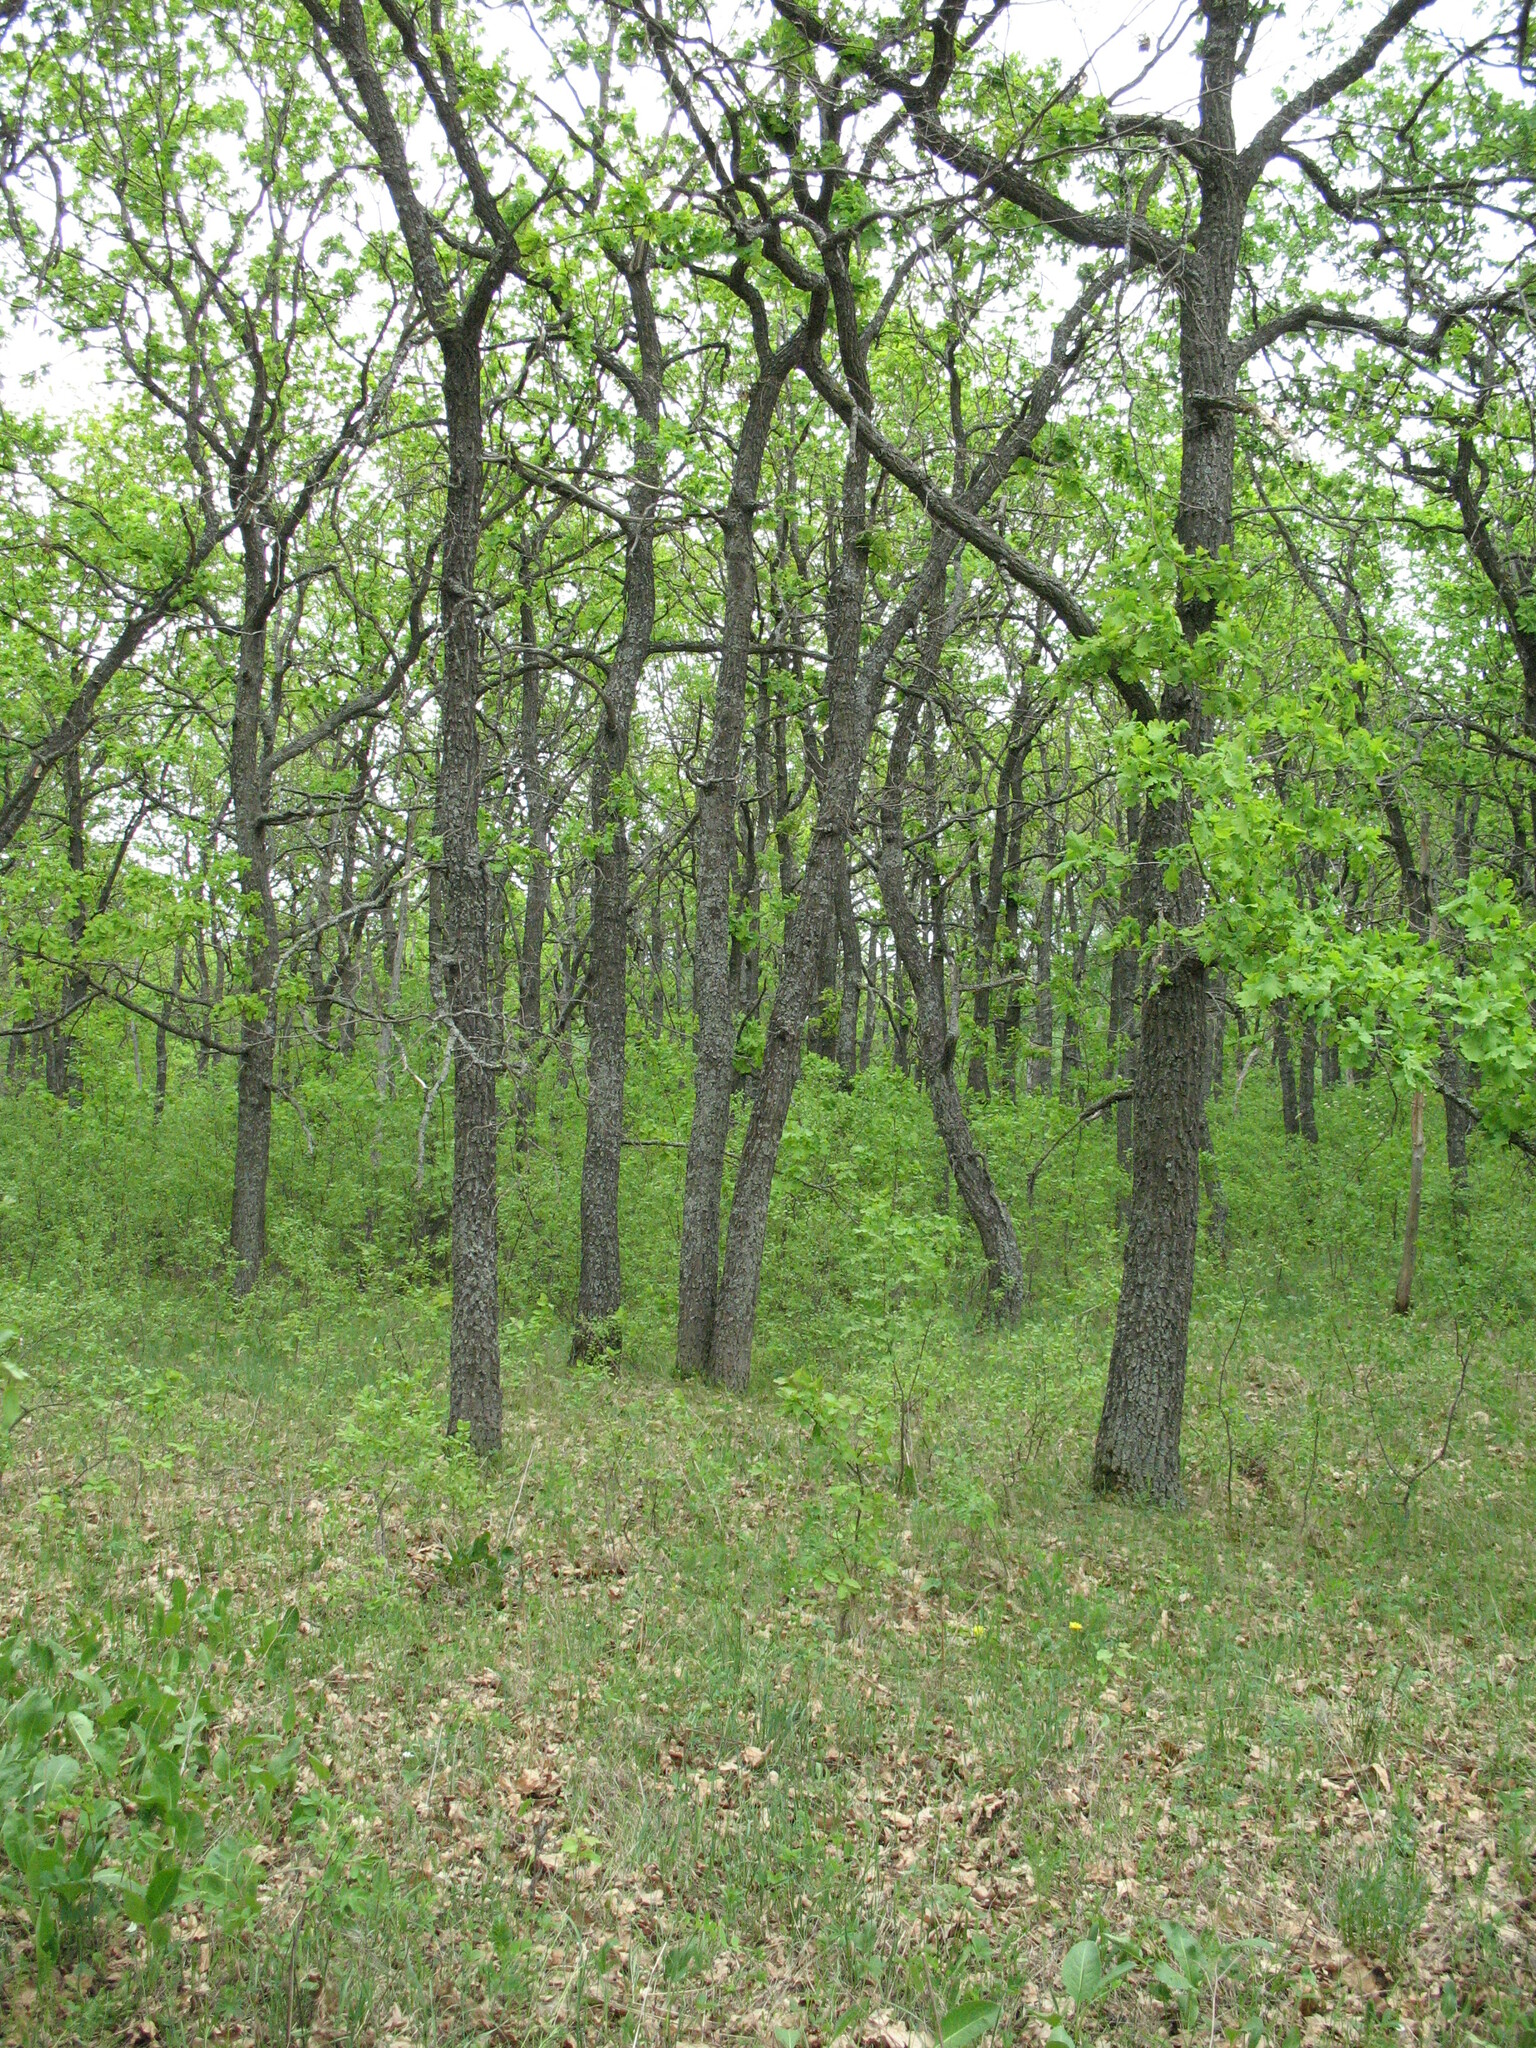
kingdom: Plantae
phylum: Tracheophyta
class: Magnoliopsida
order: Fagales
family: Fagaceae
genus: Quercus
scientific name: Quercus robur
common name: Pedunculate oak
